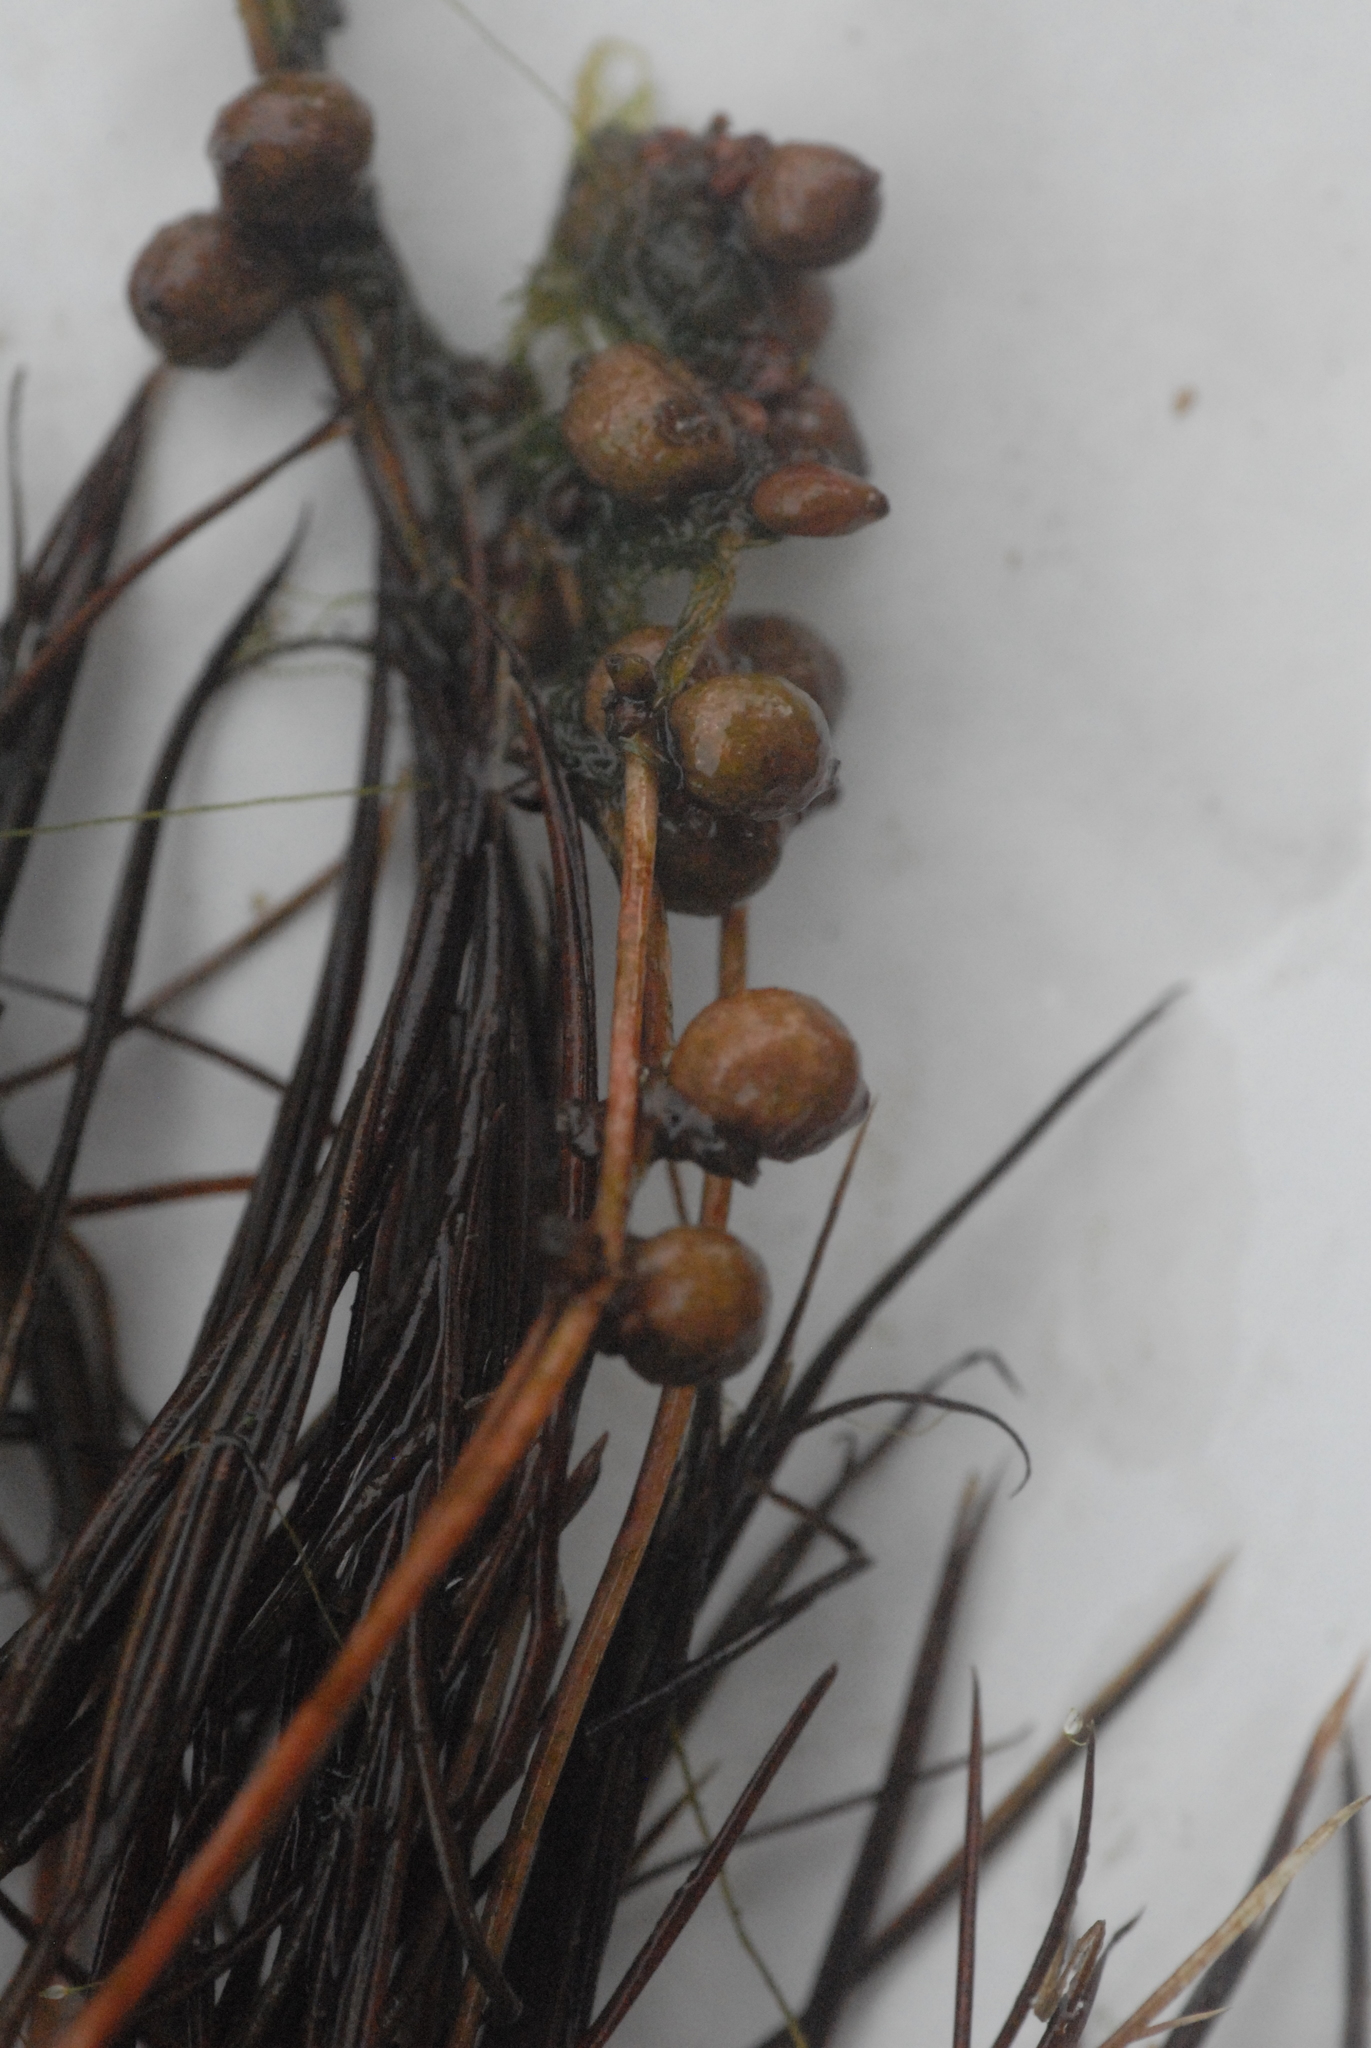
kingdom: Plantae
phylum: Tracheophyta
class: Liliopsida
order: Alismatales
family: Potamogetonaceae
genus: Stuckenia
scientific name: Stuckenia pectinata
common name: Sago pondweed
